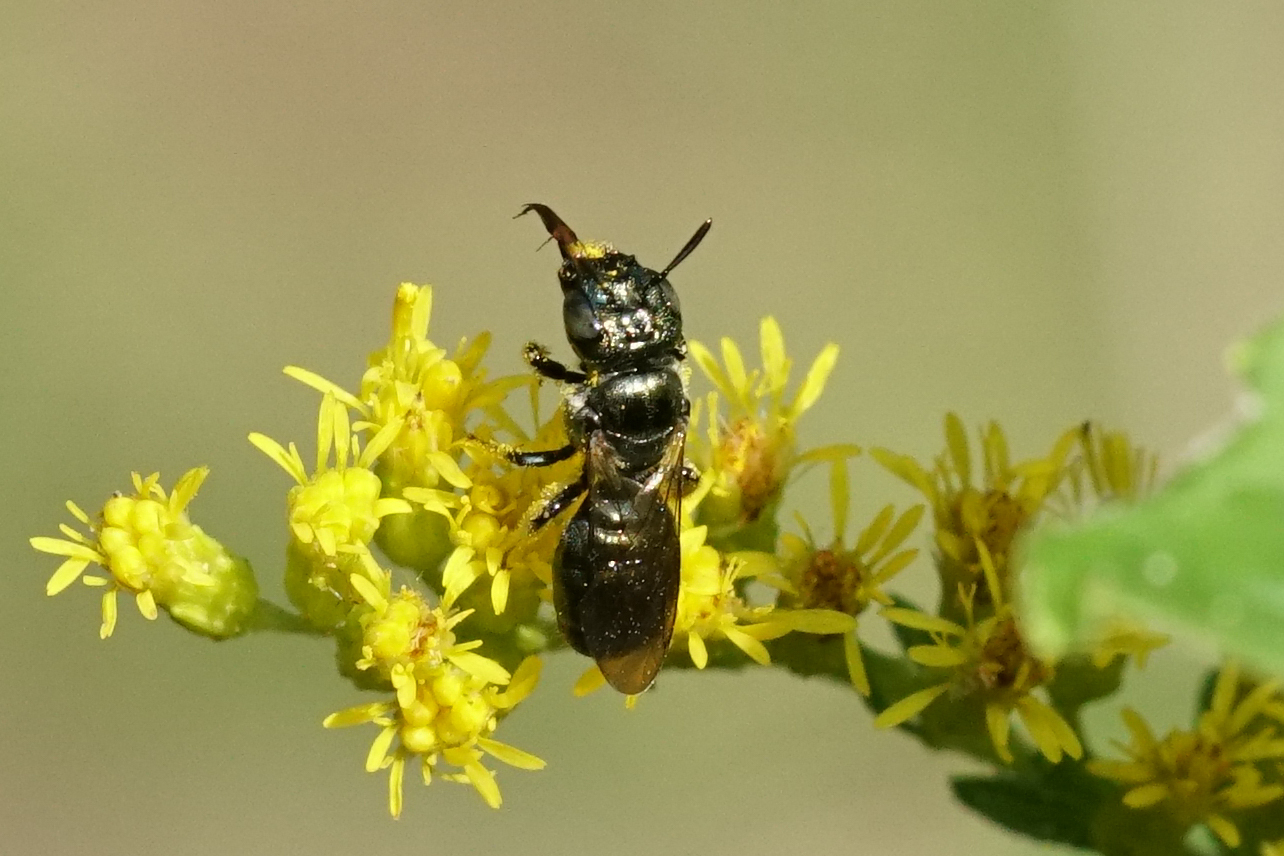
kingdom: Animalia
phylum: Arthropoda
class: Insecta
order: Hymenoptera
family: Apidae
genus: Zadontomerus
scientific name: Zadontomerus
